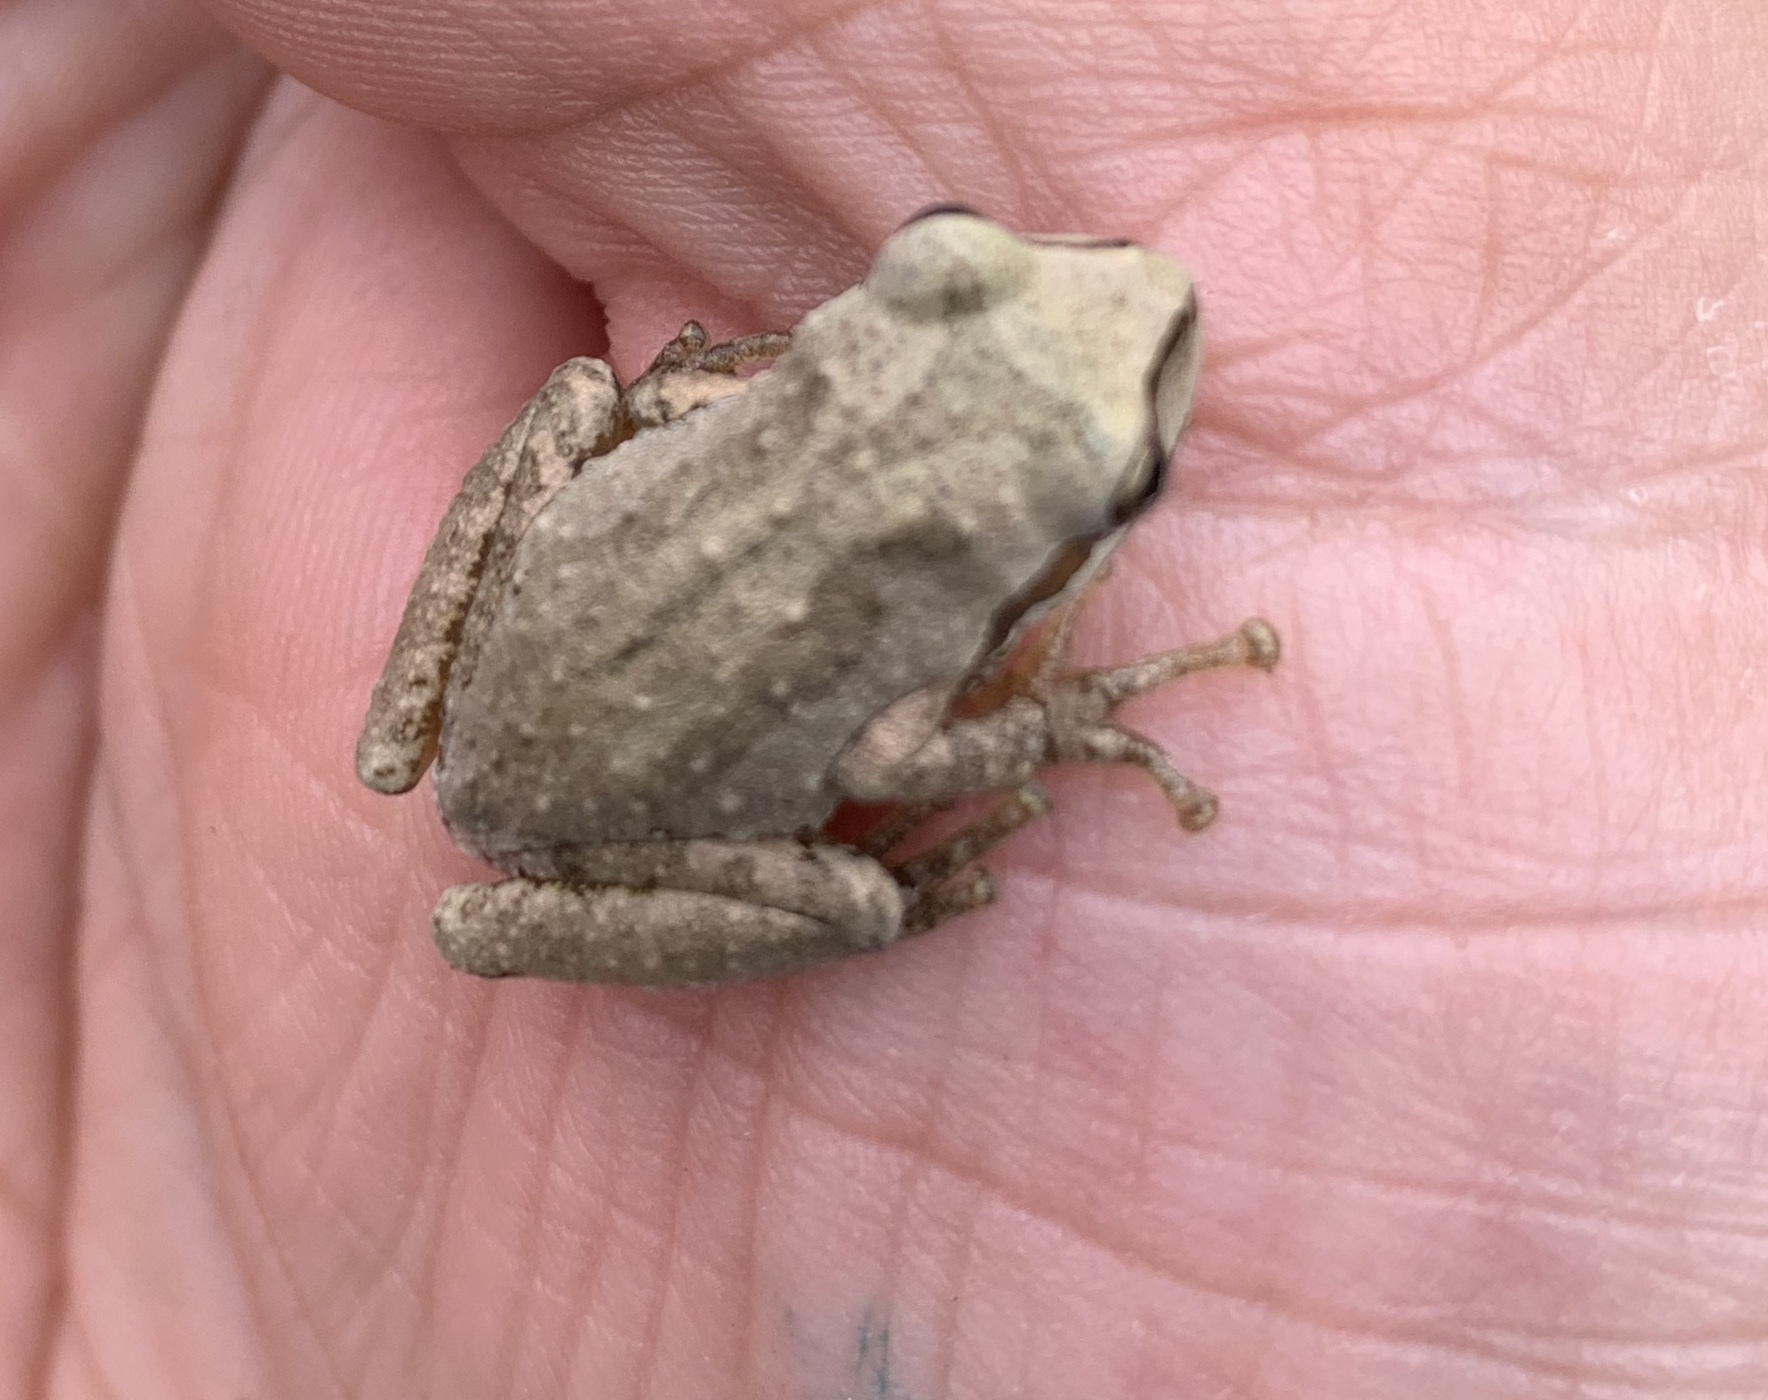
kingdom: Animalia
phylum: Chordata
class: Amphibia
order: Anura
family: Hylidae
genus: Pseudacris
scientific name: Pseudacris regilla
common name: Pacific chorus frog
